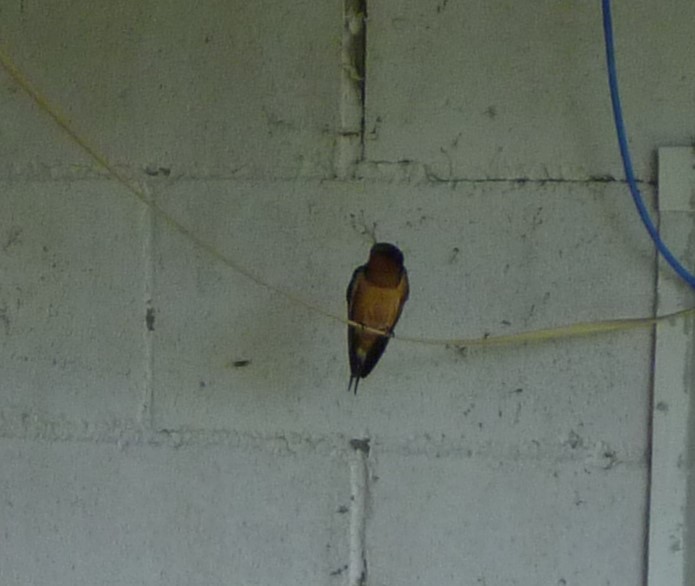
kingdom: Animalia
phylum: Chordata
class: Aves
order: Passeriformes
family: Hirundinidae
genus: Hirundo
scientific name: Hirundo rustica
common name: Barn swallow
